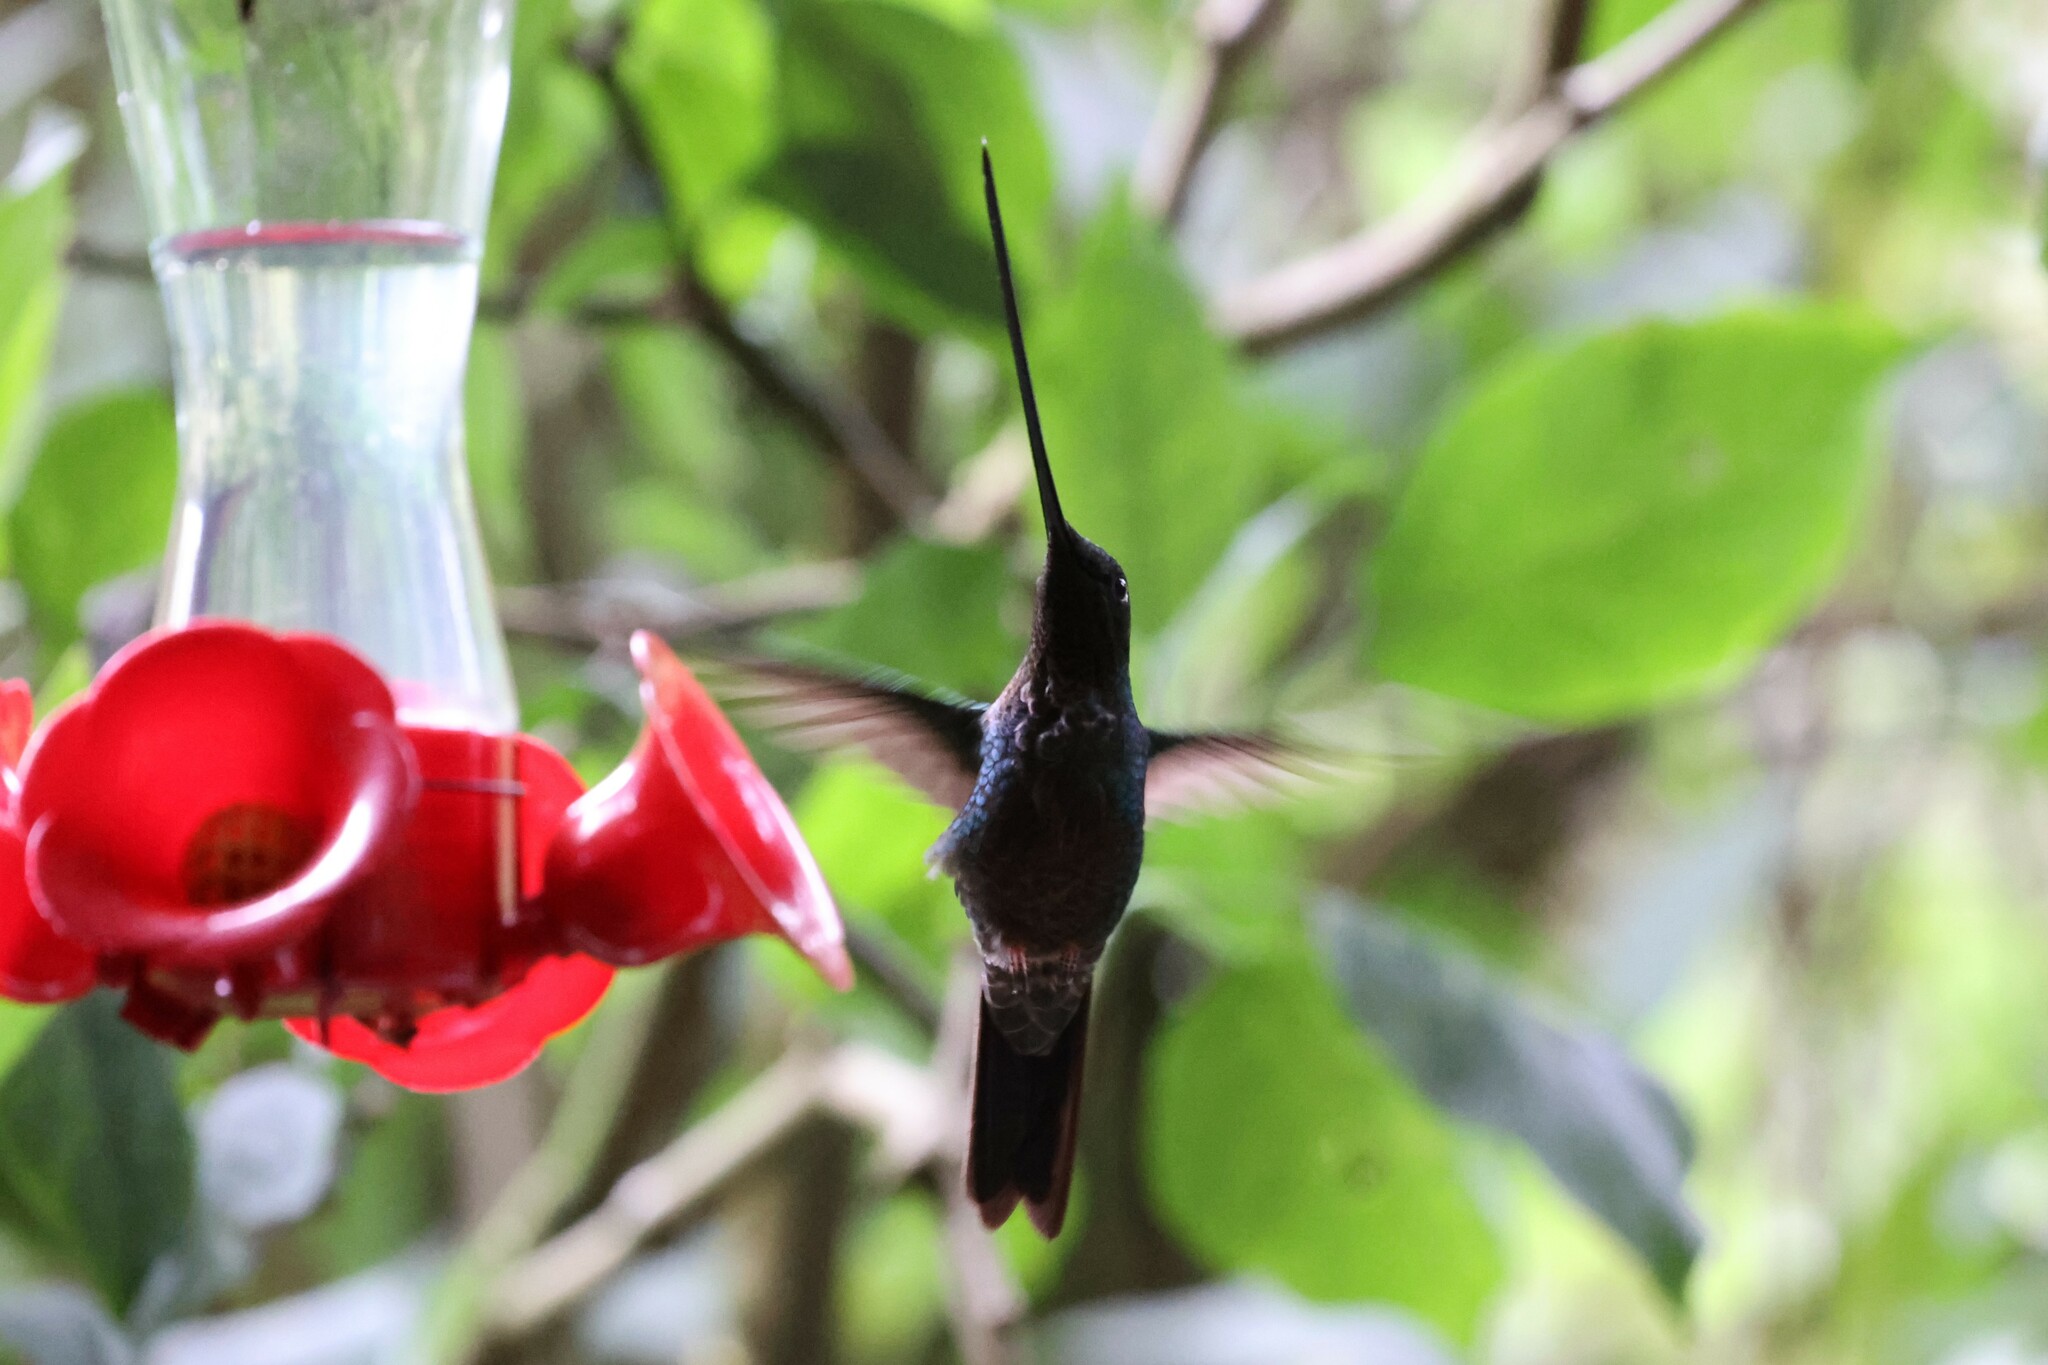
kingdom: Animalia
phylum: Chordata
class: Aves
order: Apodiformes
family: Trochilidae
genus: Ensifera
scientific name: Ensifera ensifera
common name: Sword-billed hummingbird
